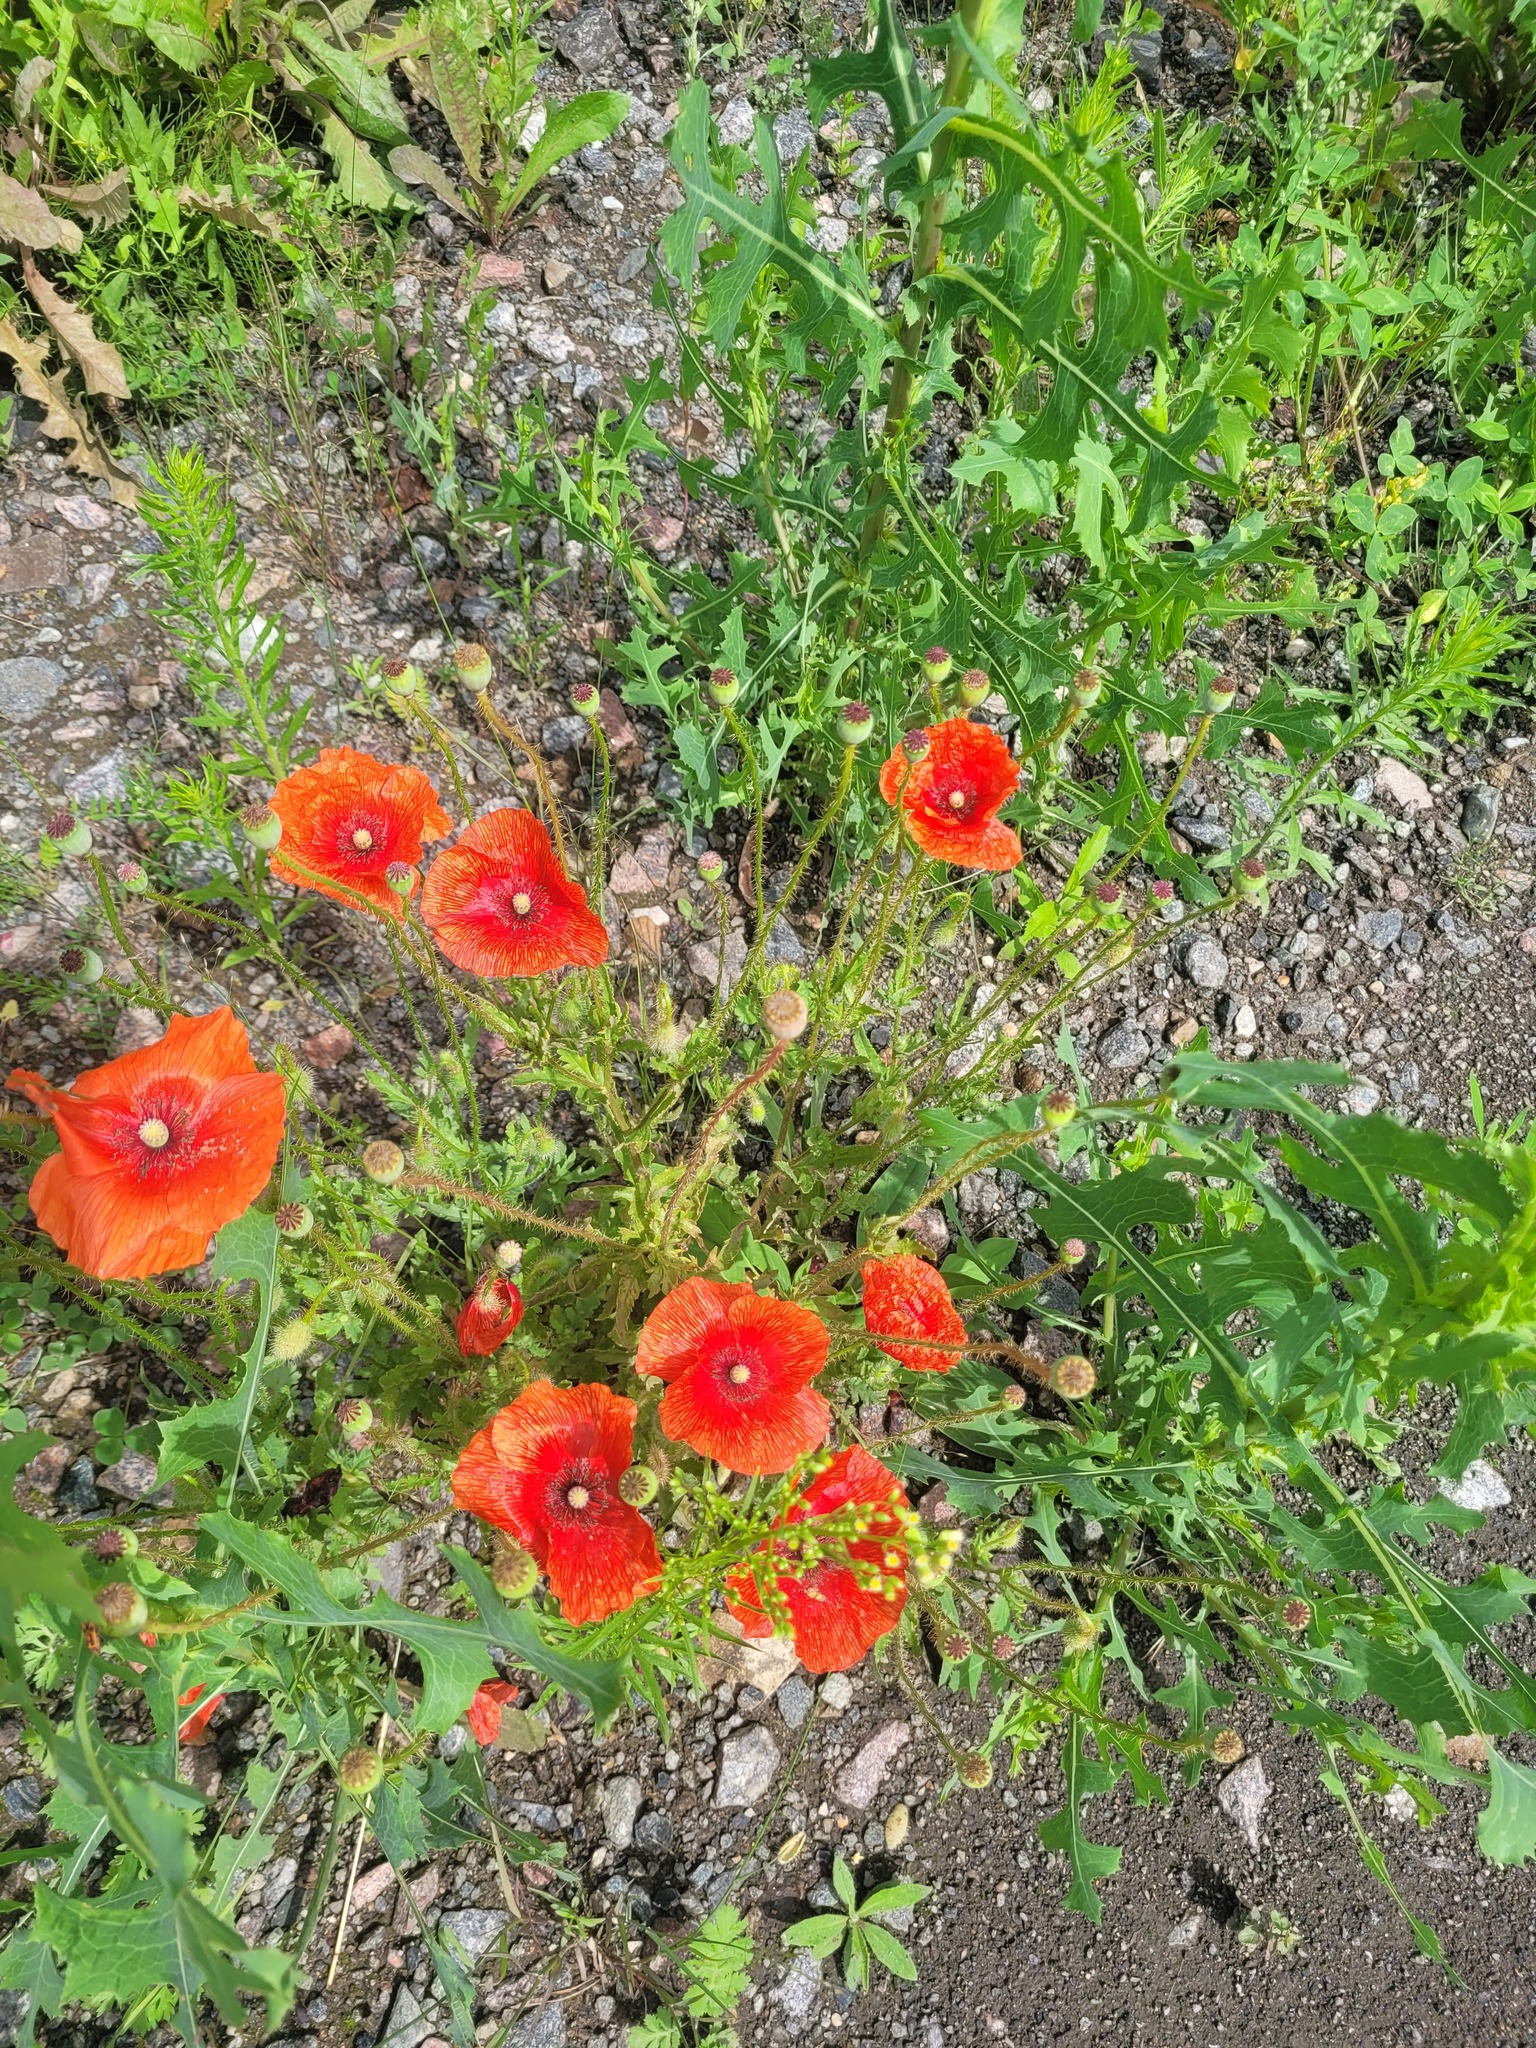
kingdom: Plantae
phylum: Tracheophyta
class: Magnoliopsida
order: Ranunculales
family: Papaveraceae
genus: Papaver
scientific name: Papaver rhoeas
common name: Corn poppy
